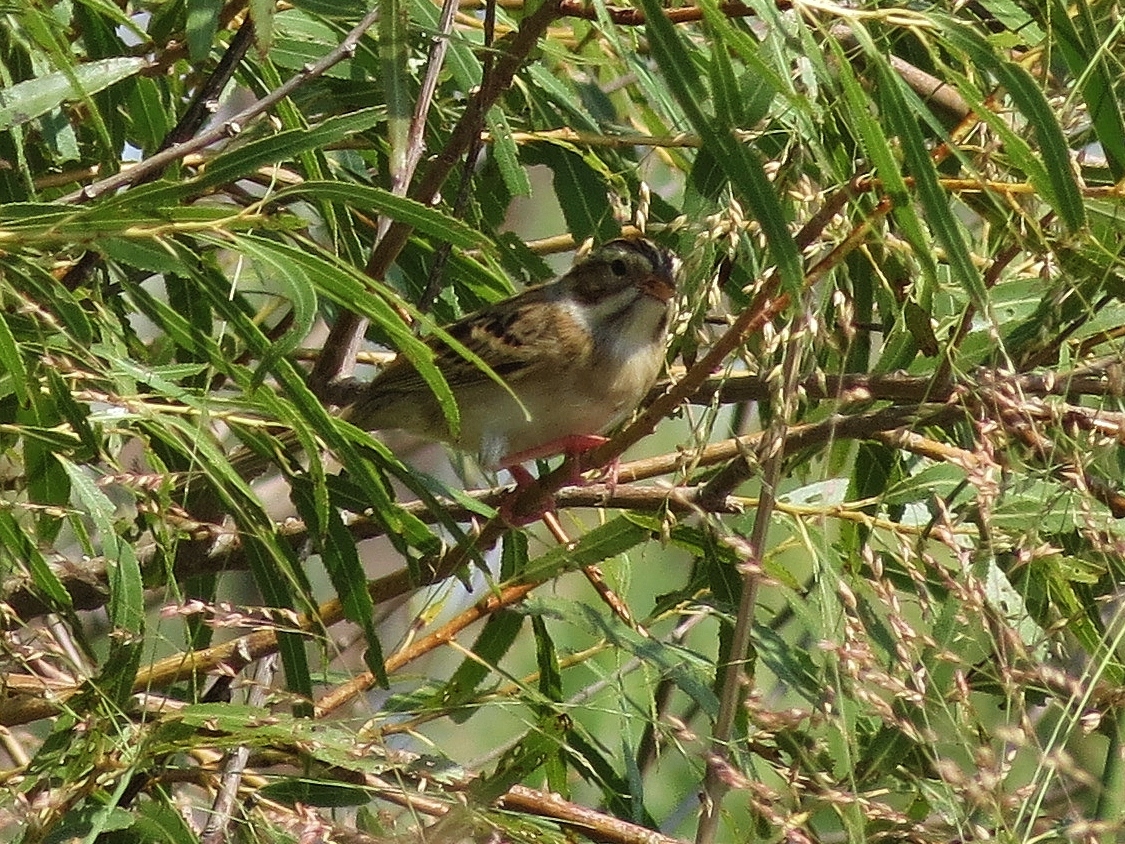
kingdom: Animalia
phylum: Chordata
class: Aves
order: Passeriformes
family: Passerellidae
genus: Spizella
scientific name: Spizella pallida
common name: Clay-colored sparrow
